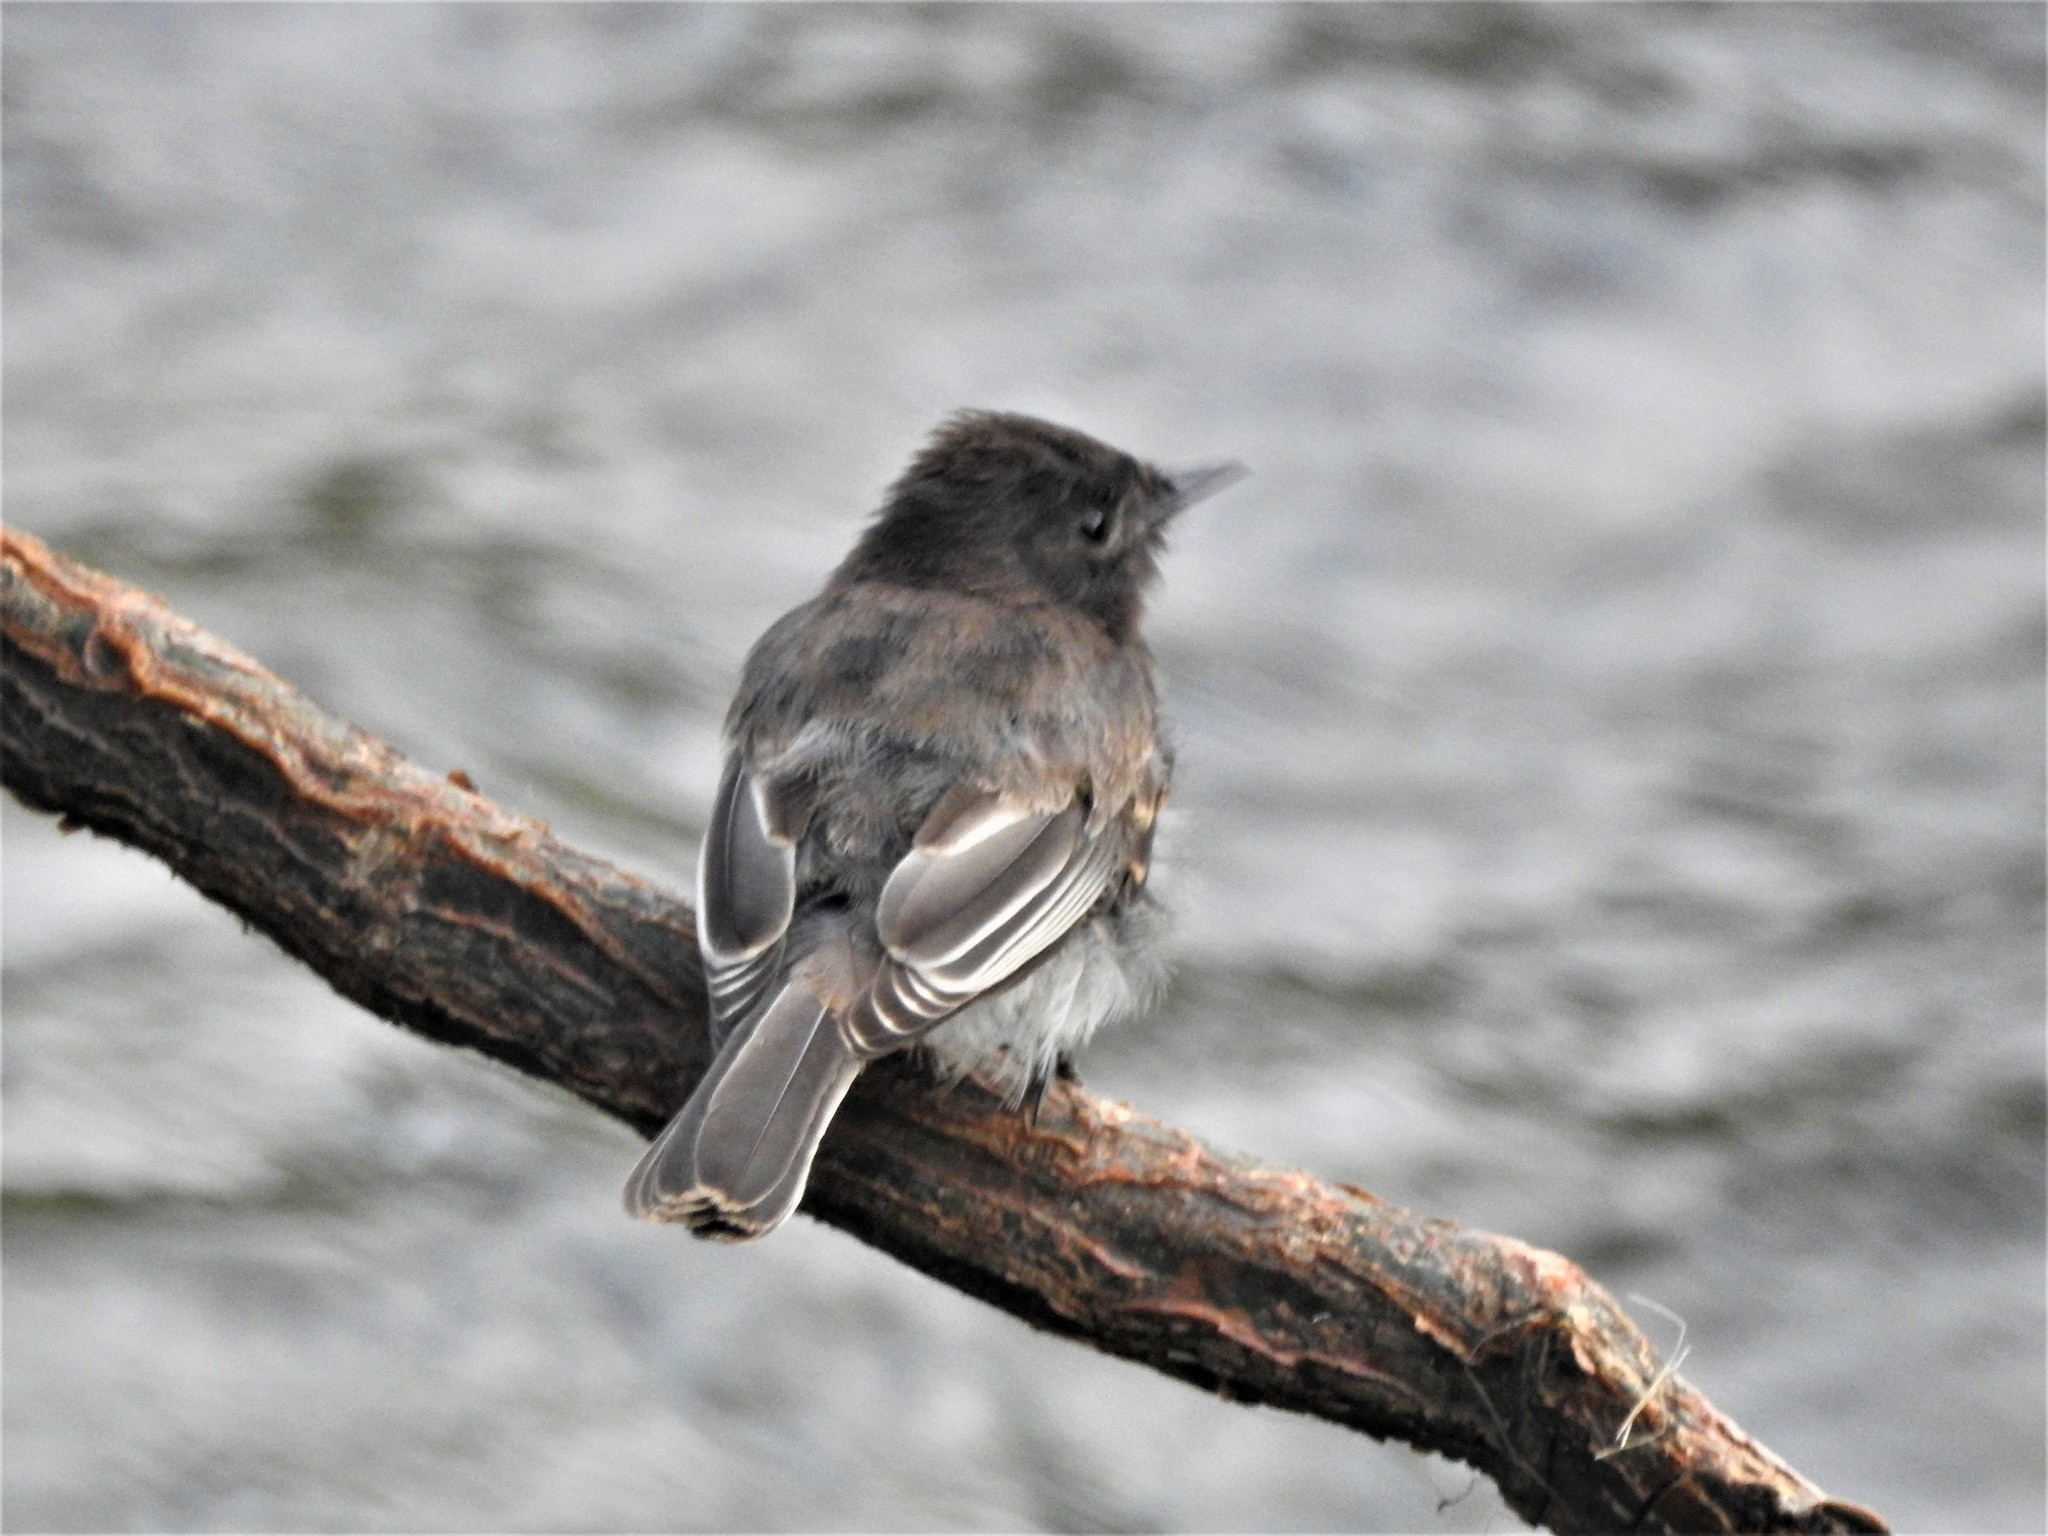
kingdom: Animalia
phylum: Chordata
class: Aves
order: Passeriformes
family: Tyrannidae
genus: Sayornis
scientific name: Sayornis nigricans
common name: Black phoebe
